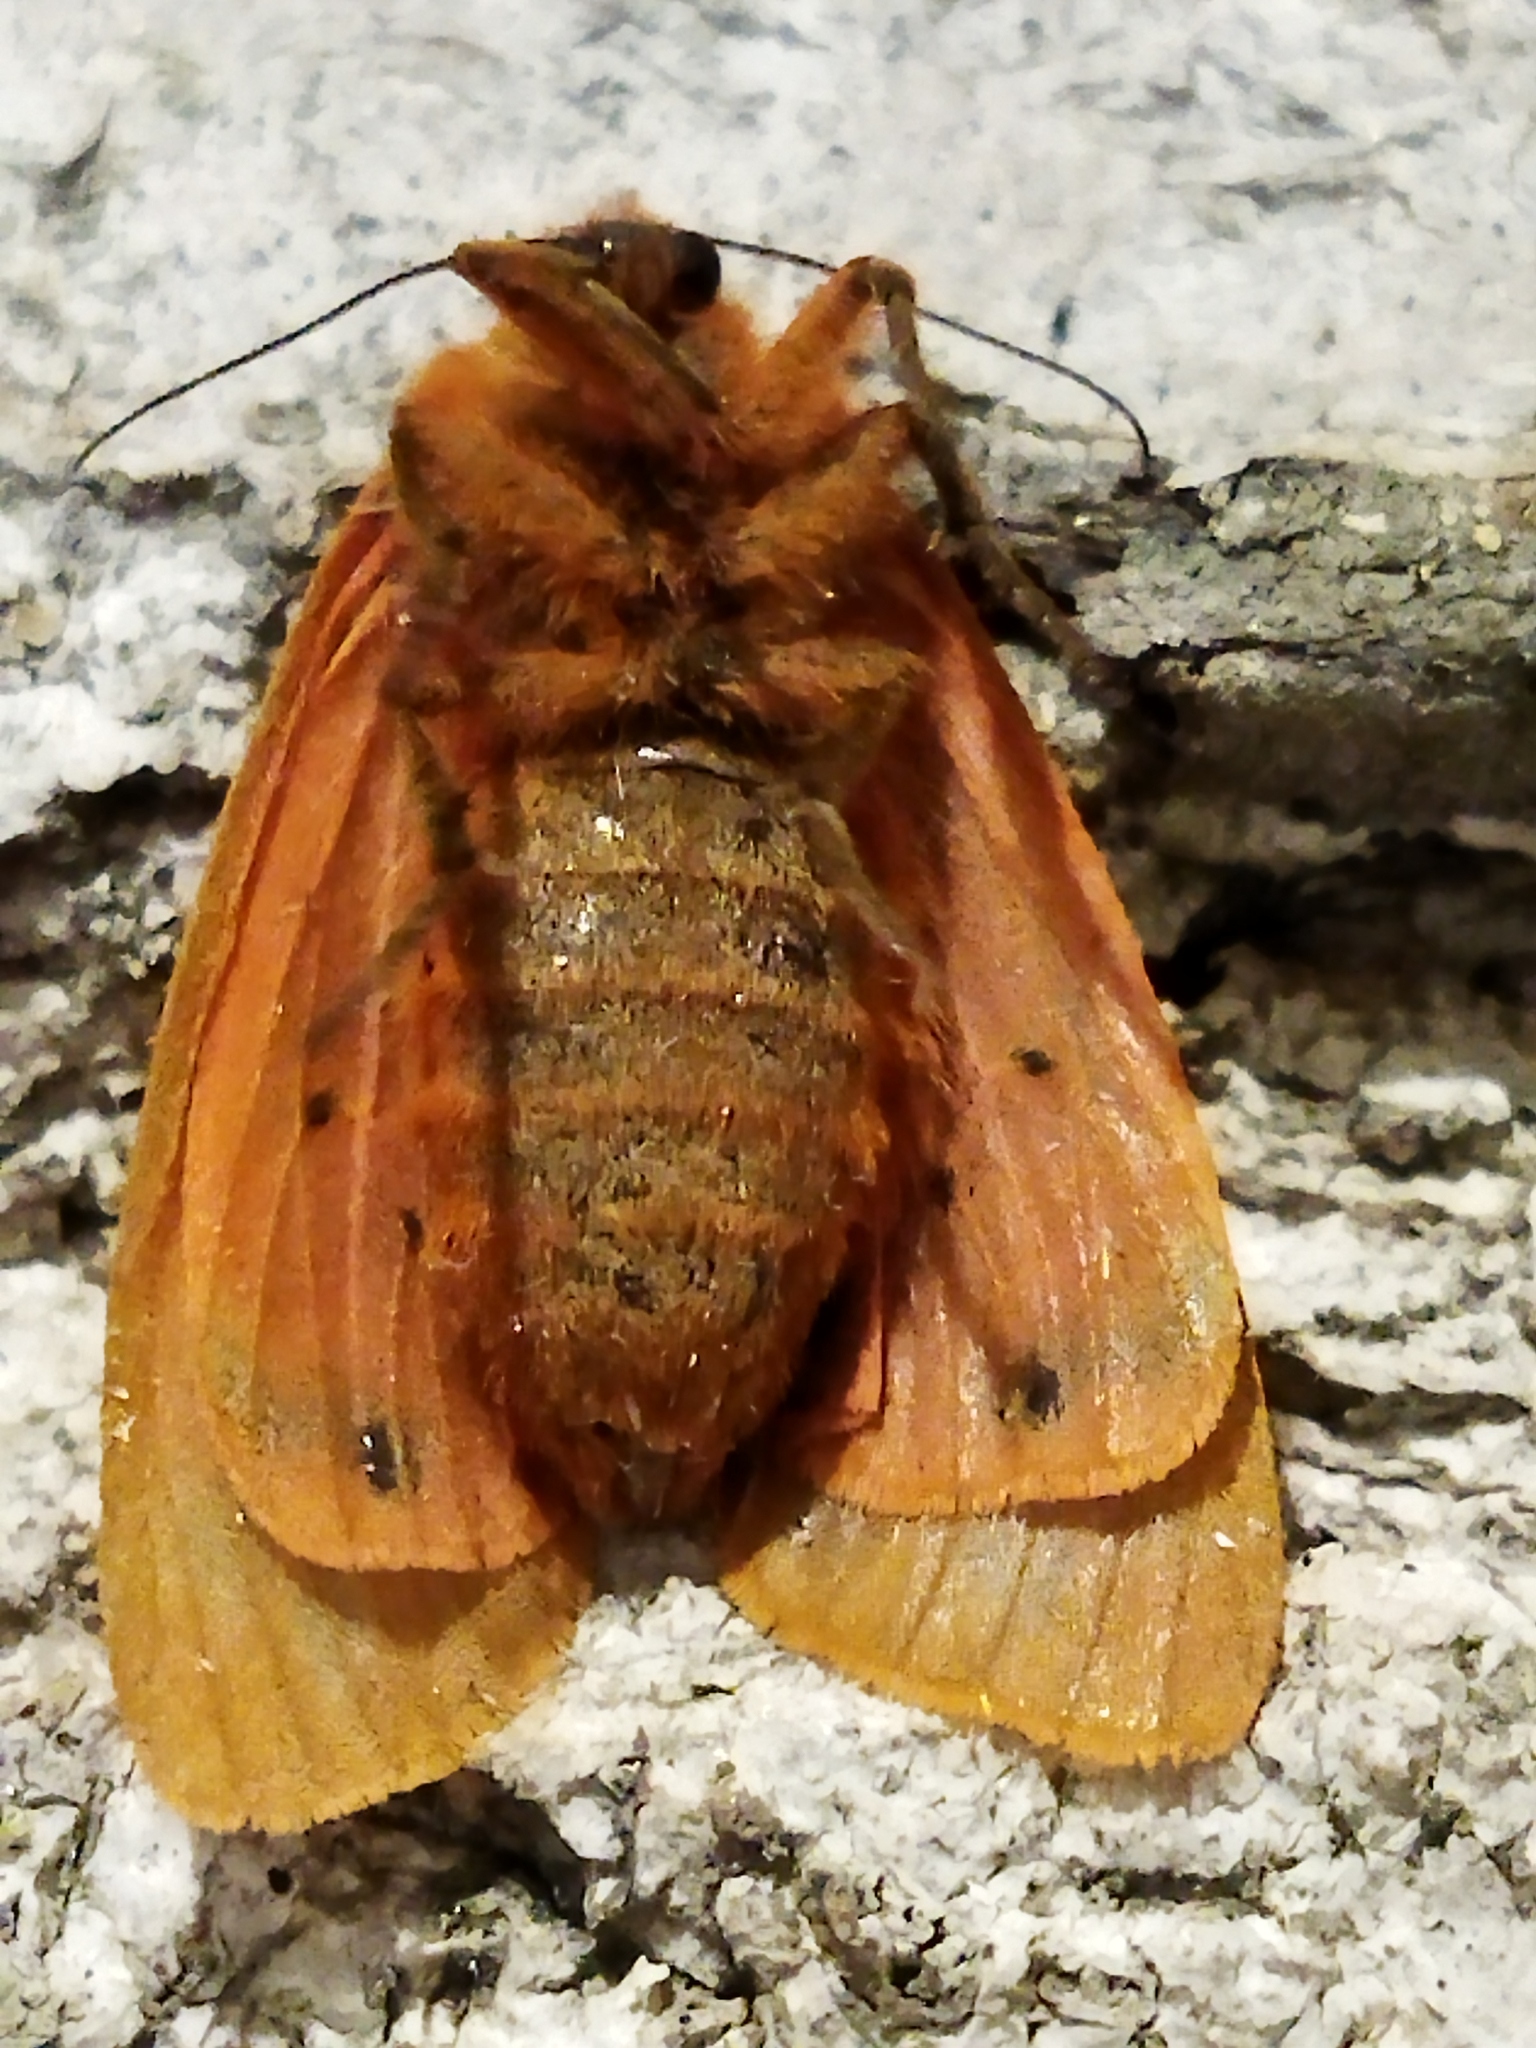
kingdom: Animalia
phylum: Arthropoda
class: Insecta
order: Lepidoptera
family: Erebidae
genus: Phragmatobia
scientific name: Phragmatobia fuliginosa
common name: Ruby tiger
